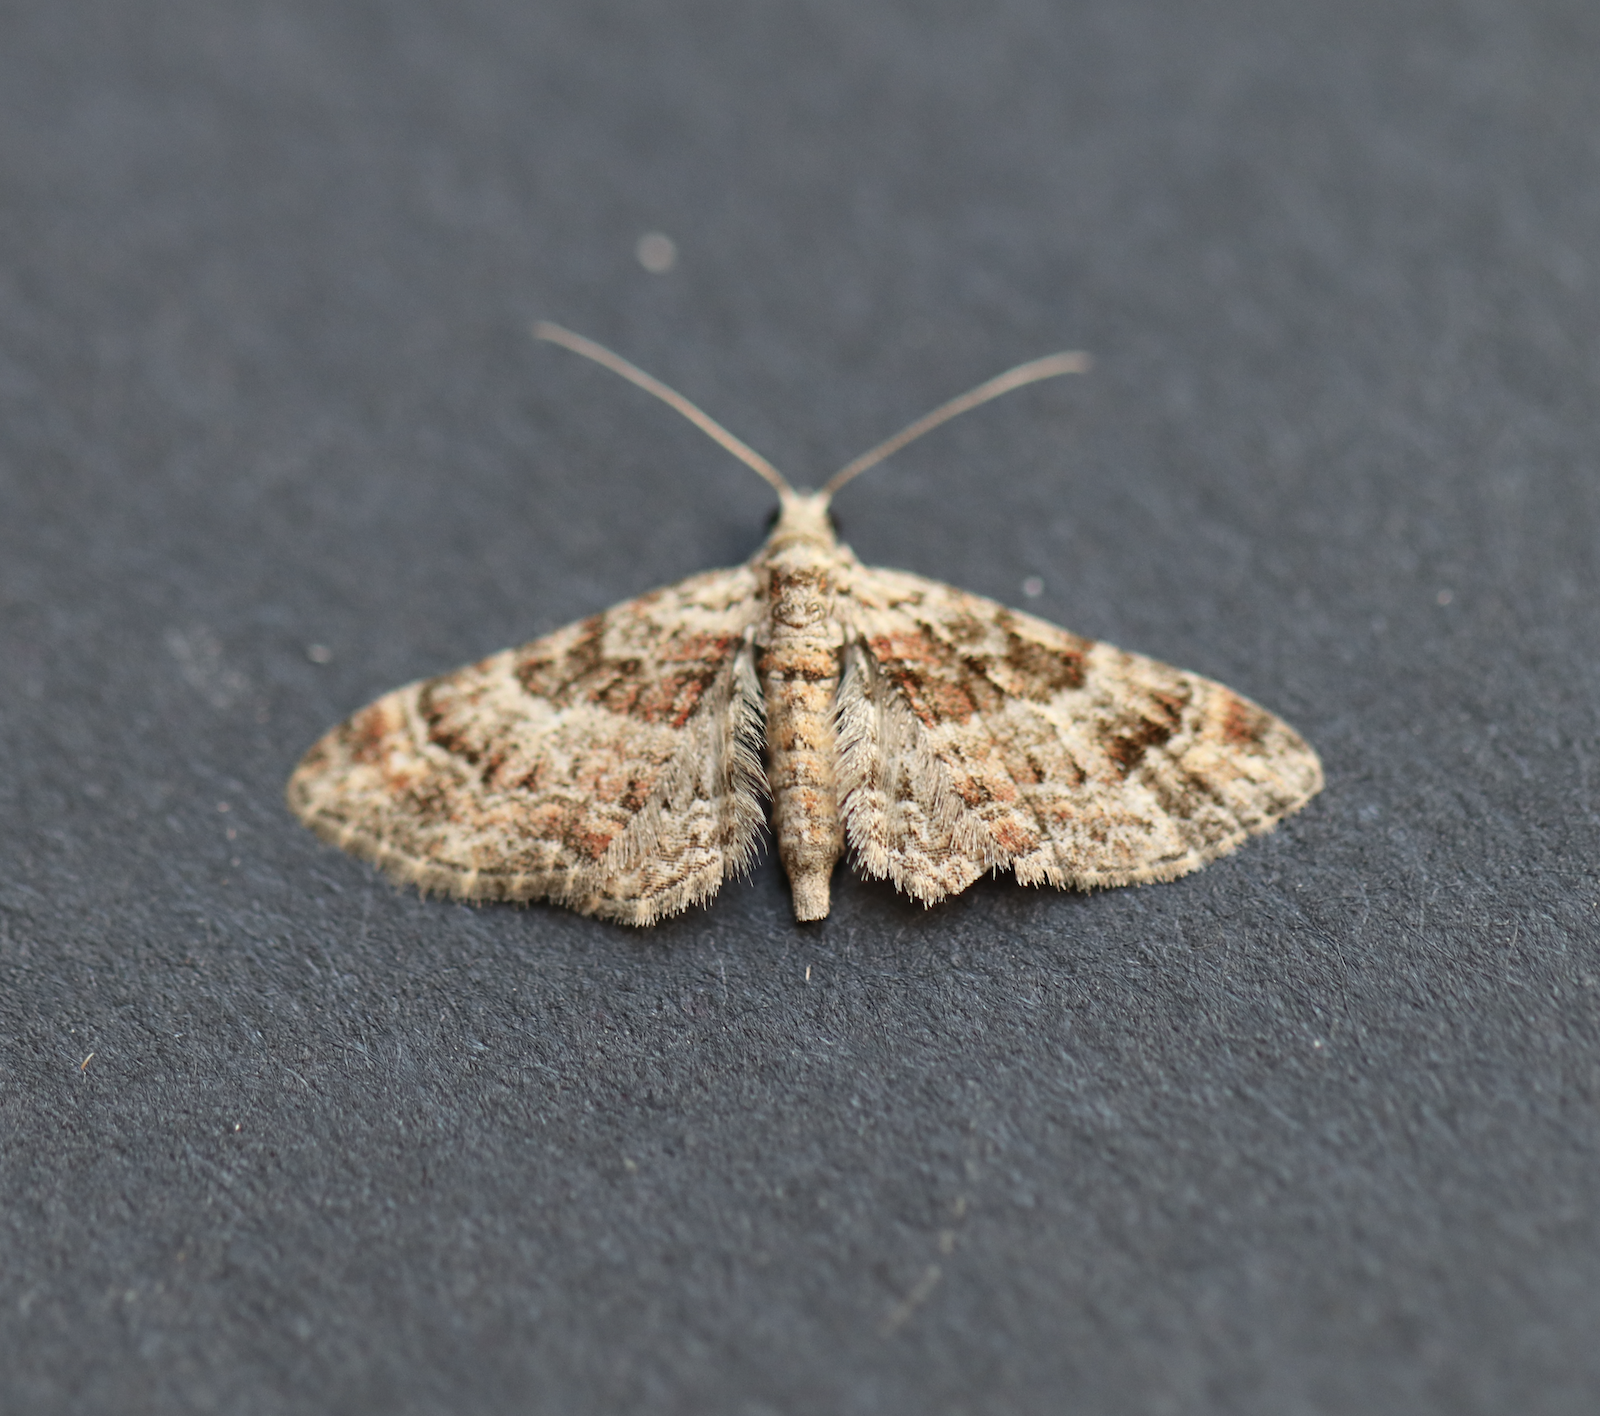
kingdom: Animalia
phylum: Arthropoda
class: Insecta
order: Lepidoptera
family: Geometridae
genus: Gymnoscelis
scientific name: Gymnoscelis rufifasciata
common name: Double-striped pug
